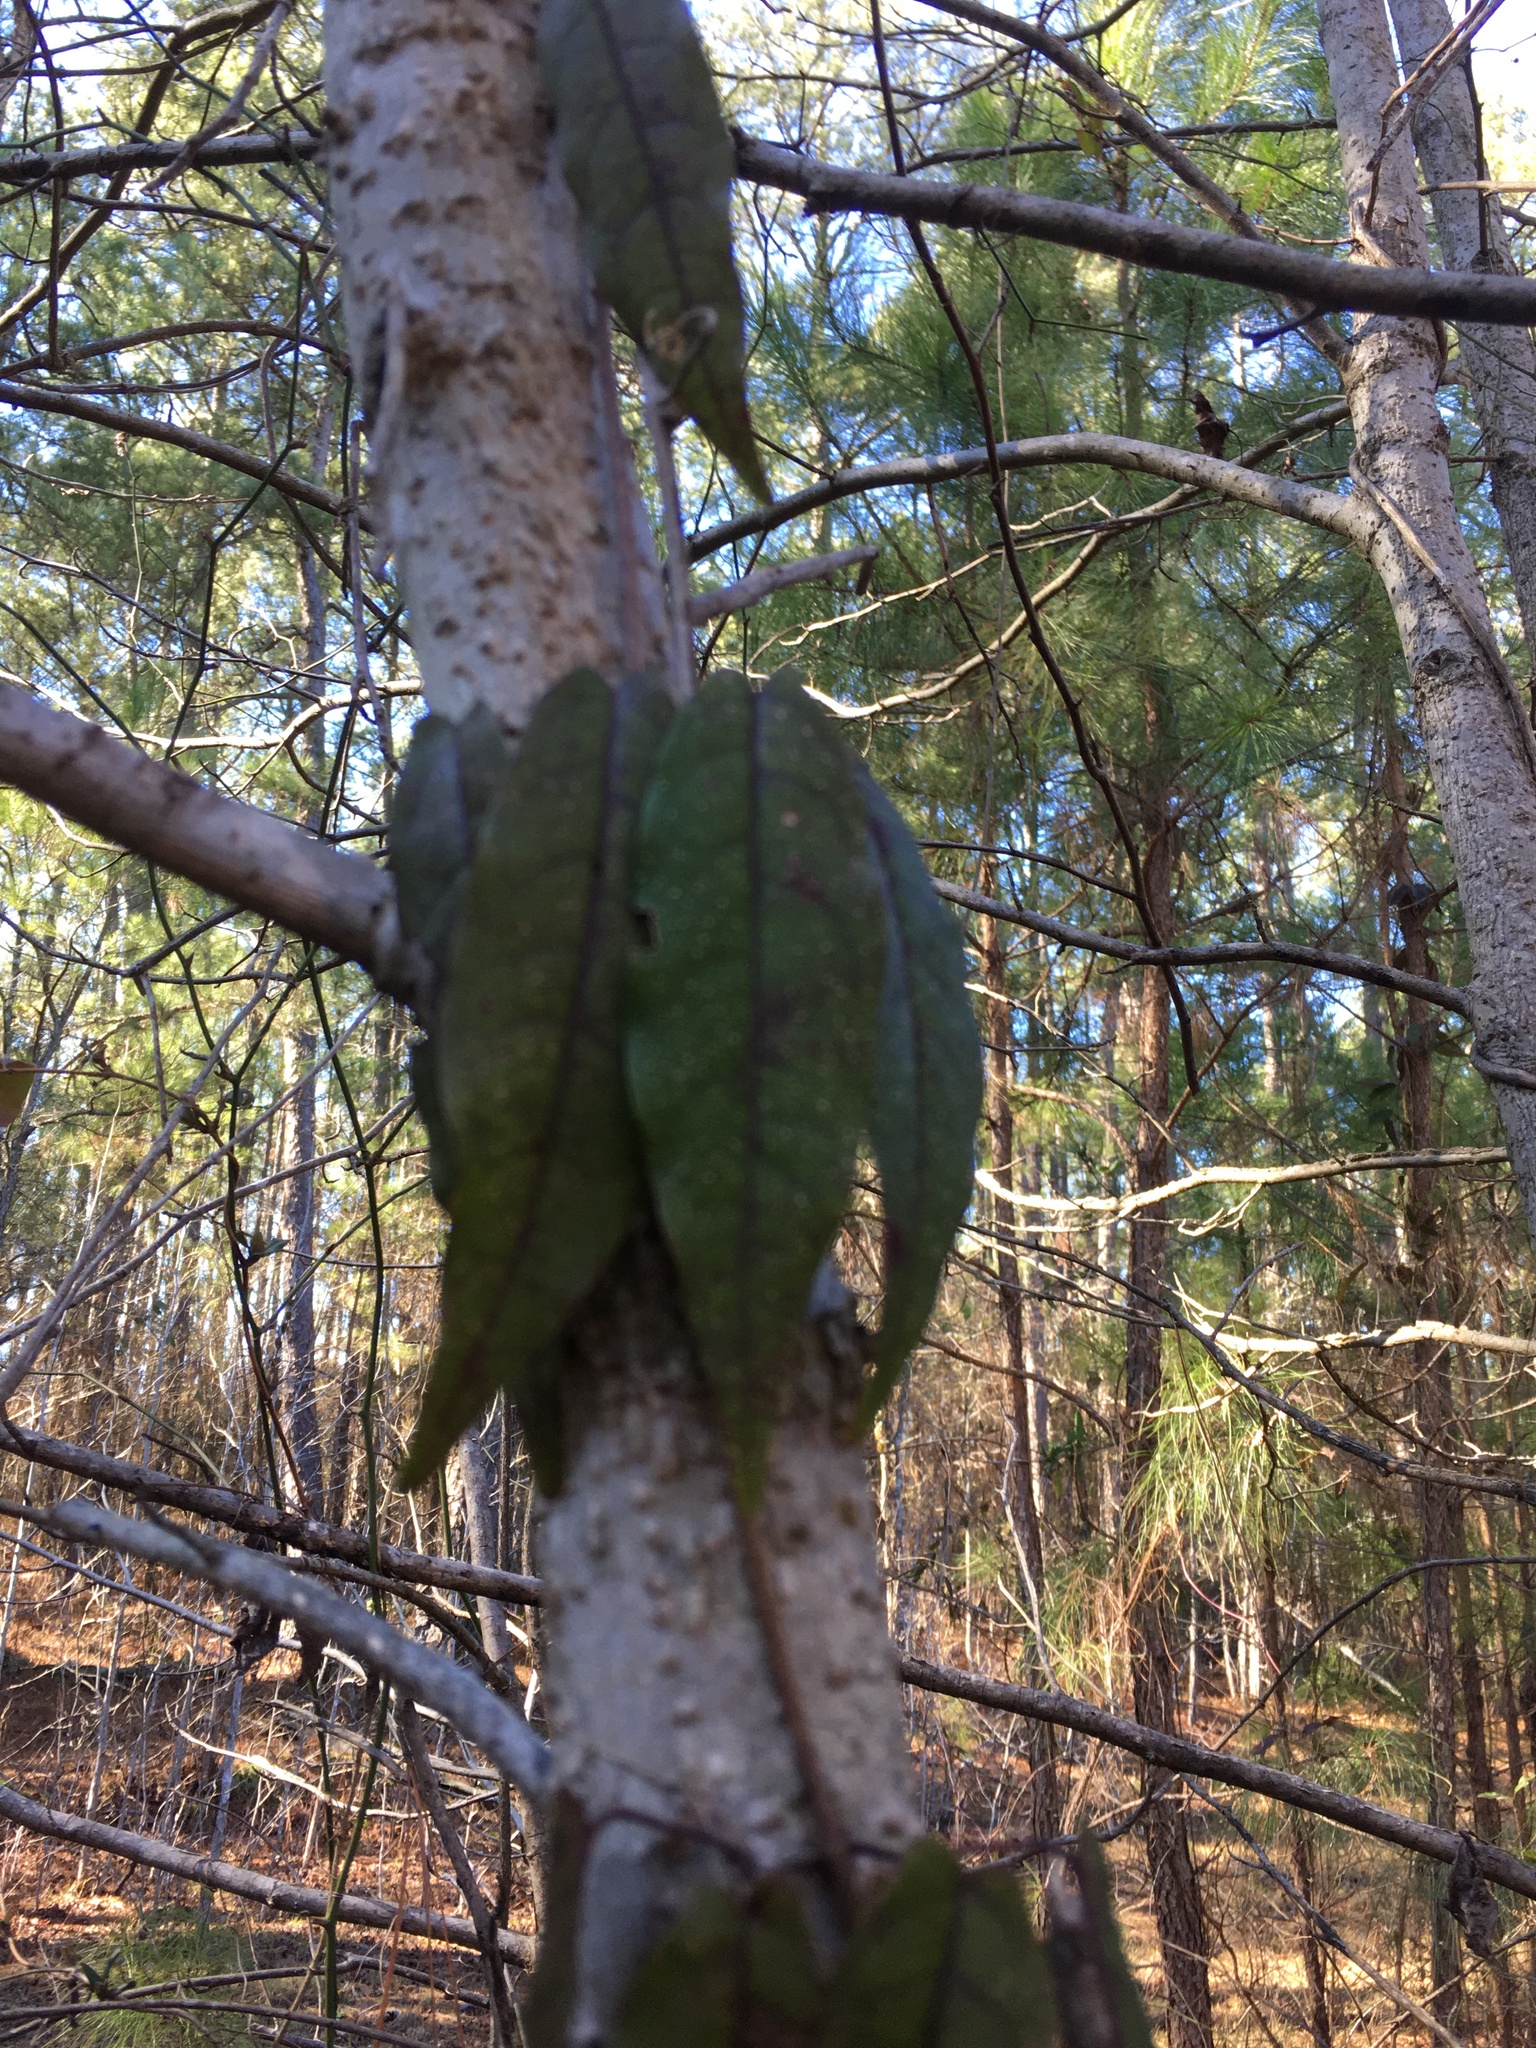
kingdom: Plantae
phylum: Tracheophyta
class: Magnoliopsida
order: Lamiales
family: Bignoniaceae
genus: Bignonia
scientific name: Bignonia capreolata
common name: Crossvine
